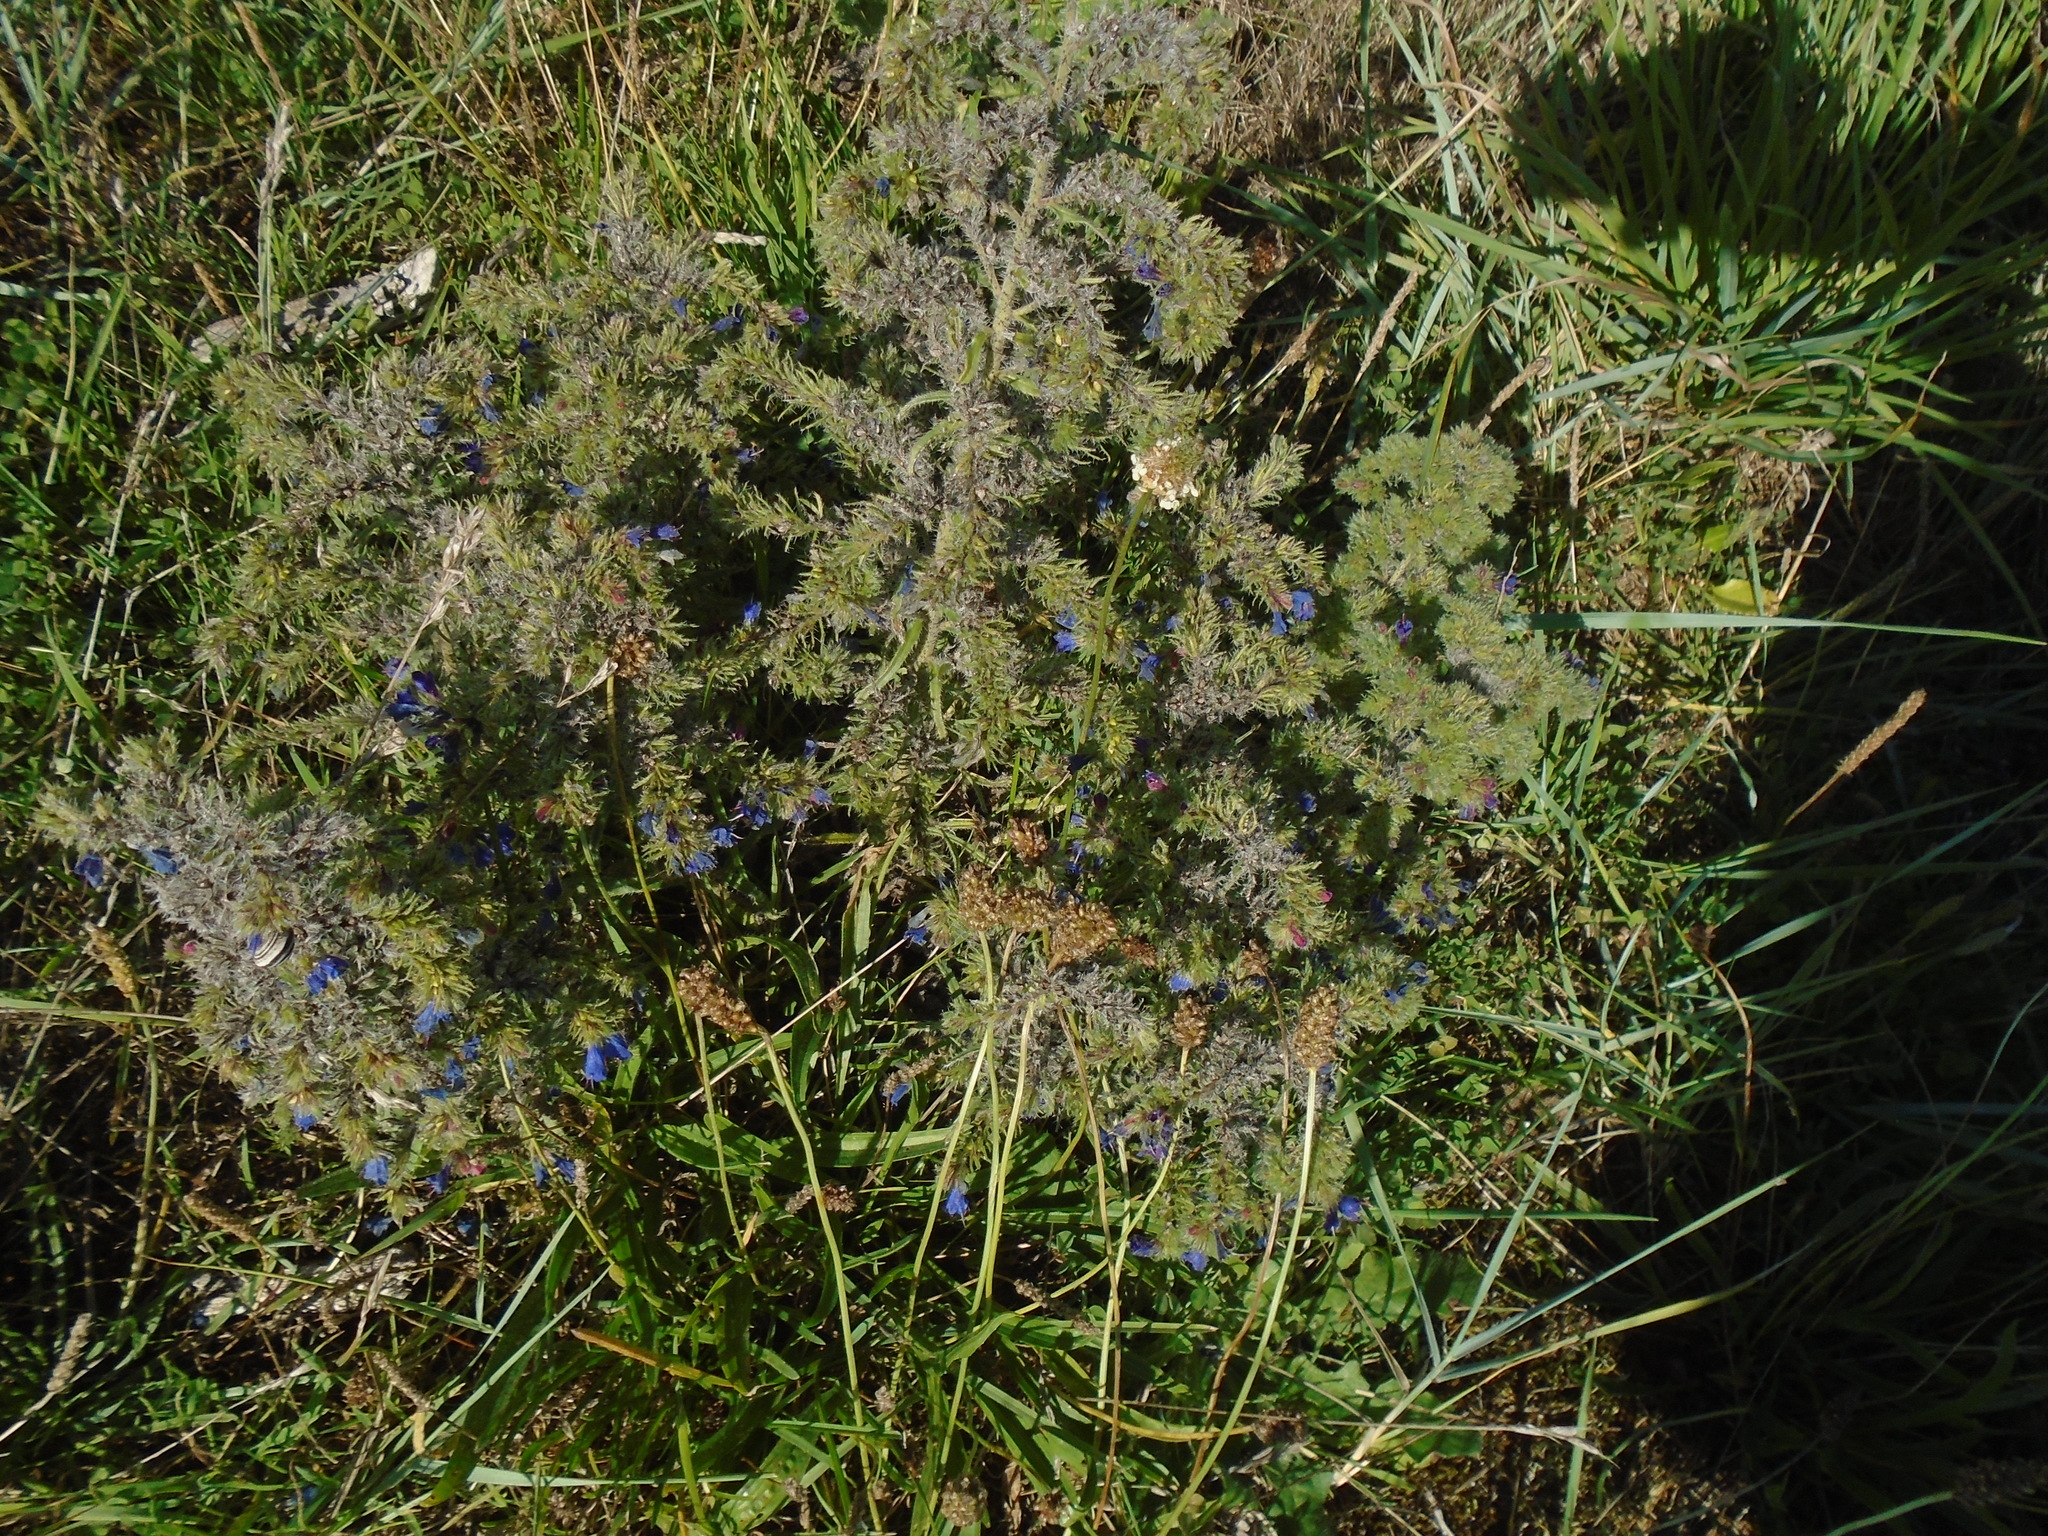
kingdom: Animalia
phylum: Arthropoda
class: Arachnida
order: Trombidiformes
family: Eriophyidae
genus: Aceria
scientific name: Aceria echii
